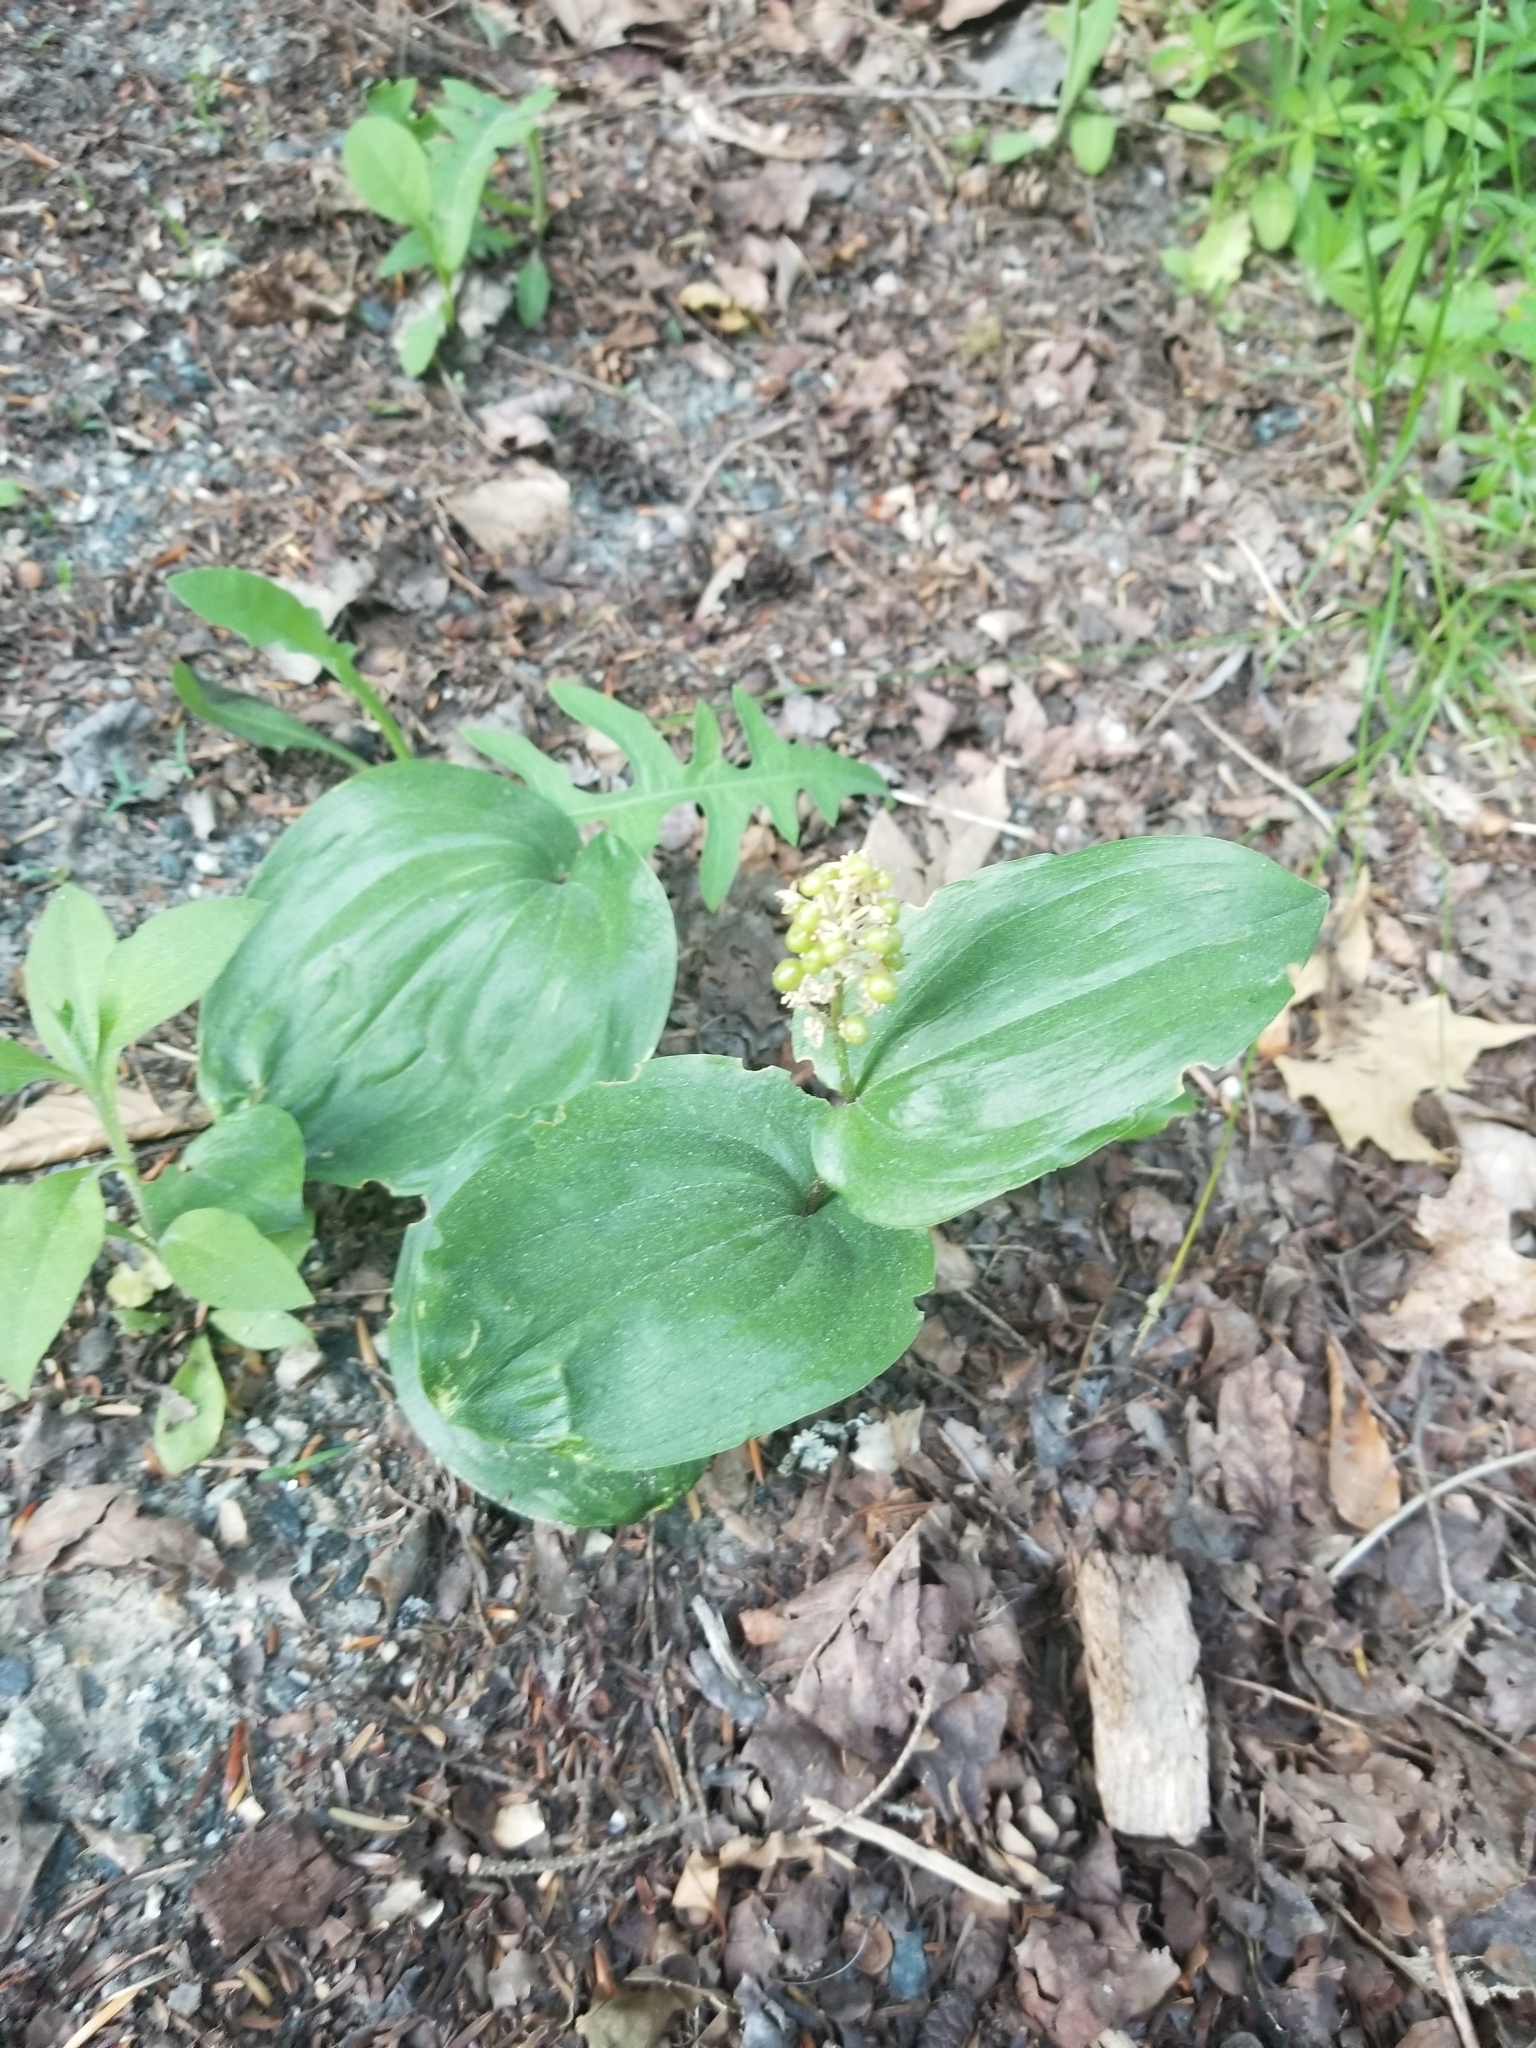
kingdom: Plantae
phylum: Tracheophyta
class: Liliopsida
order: Asparagales
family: Asparagaceae
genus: Maianthemum
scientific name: Maianthemum canadense
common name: False lily-of-the-valley
